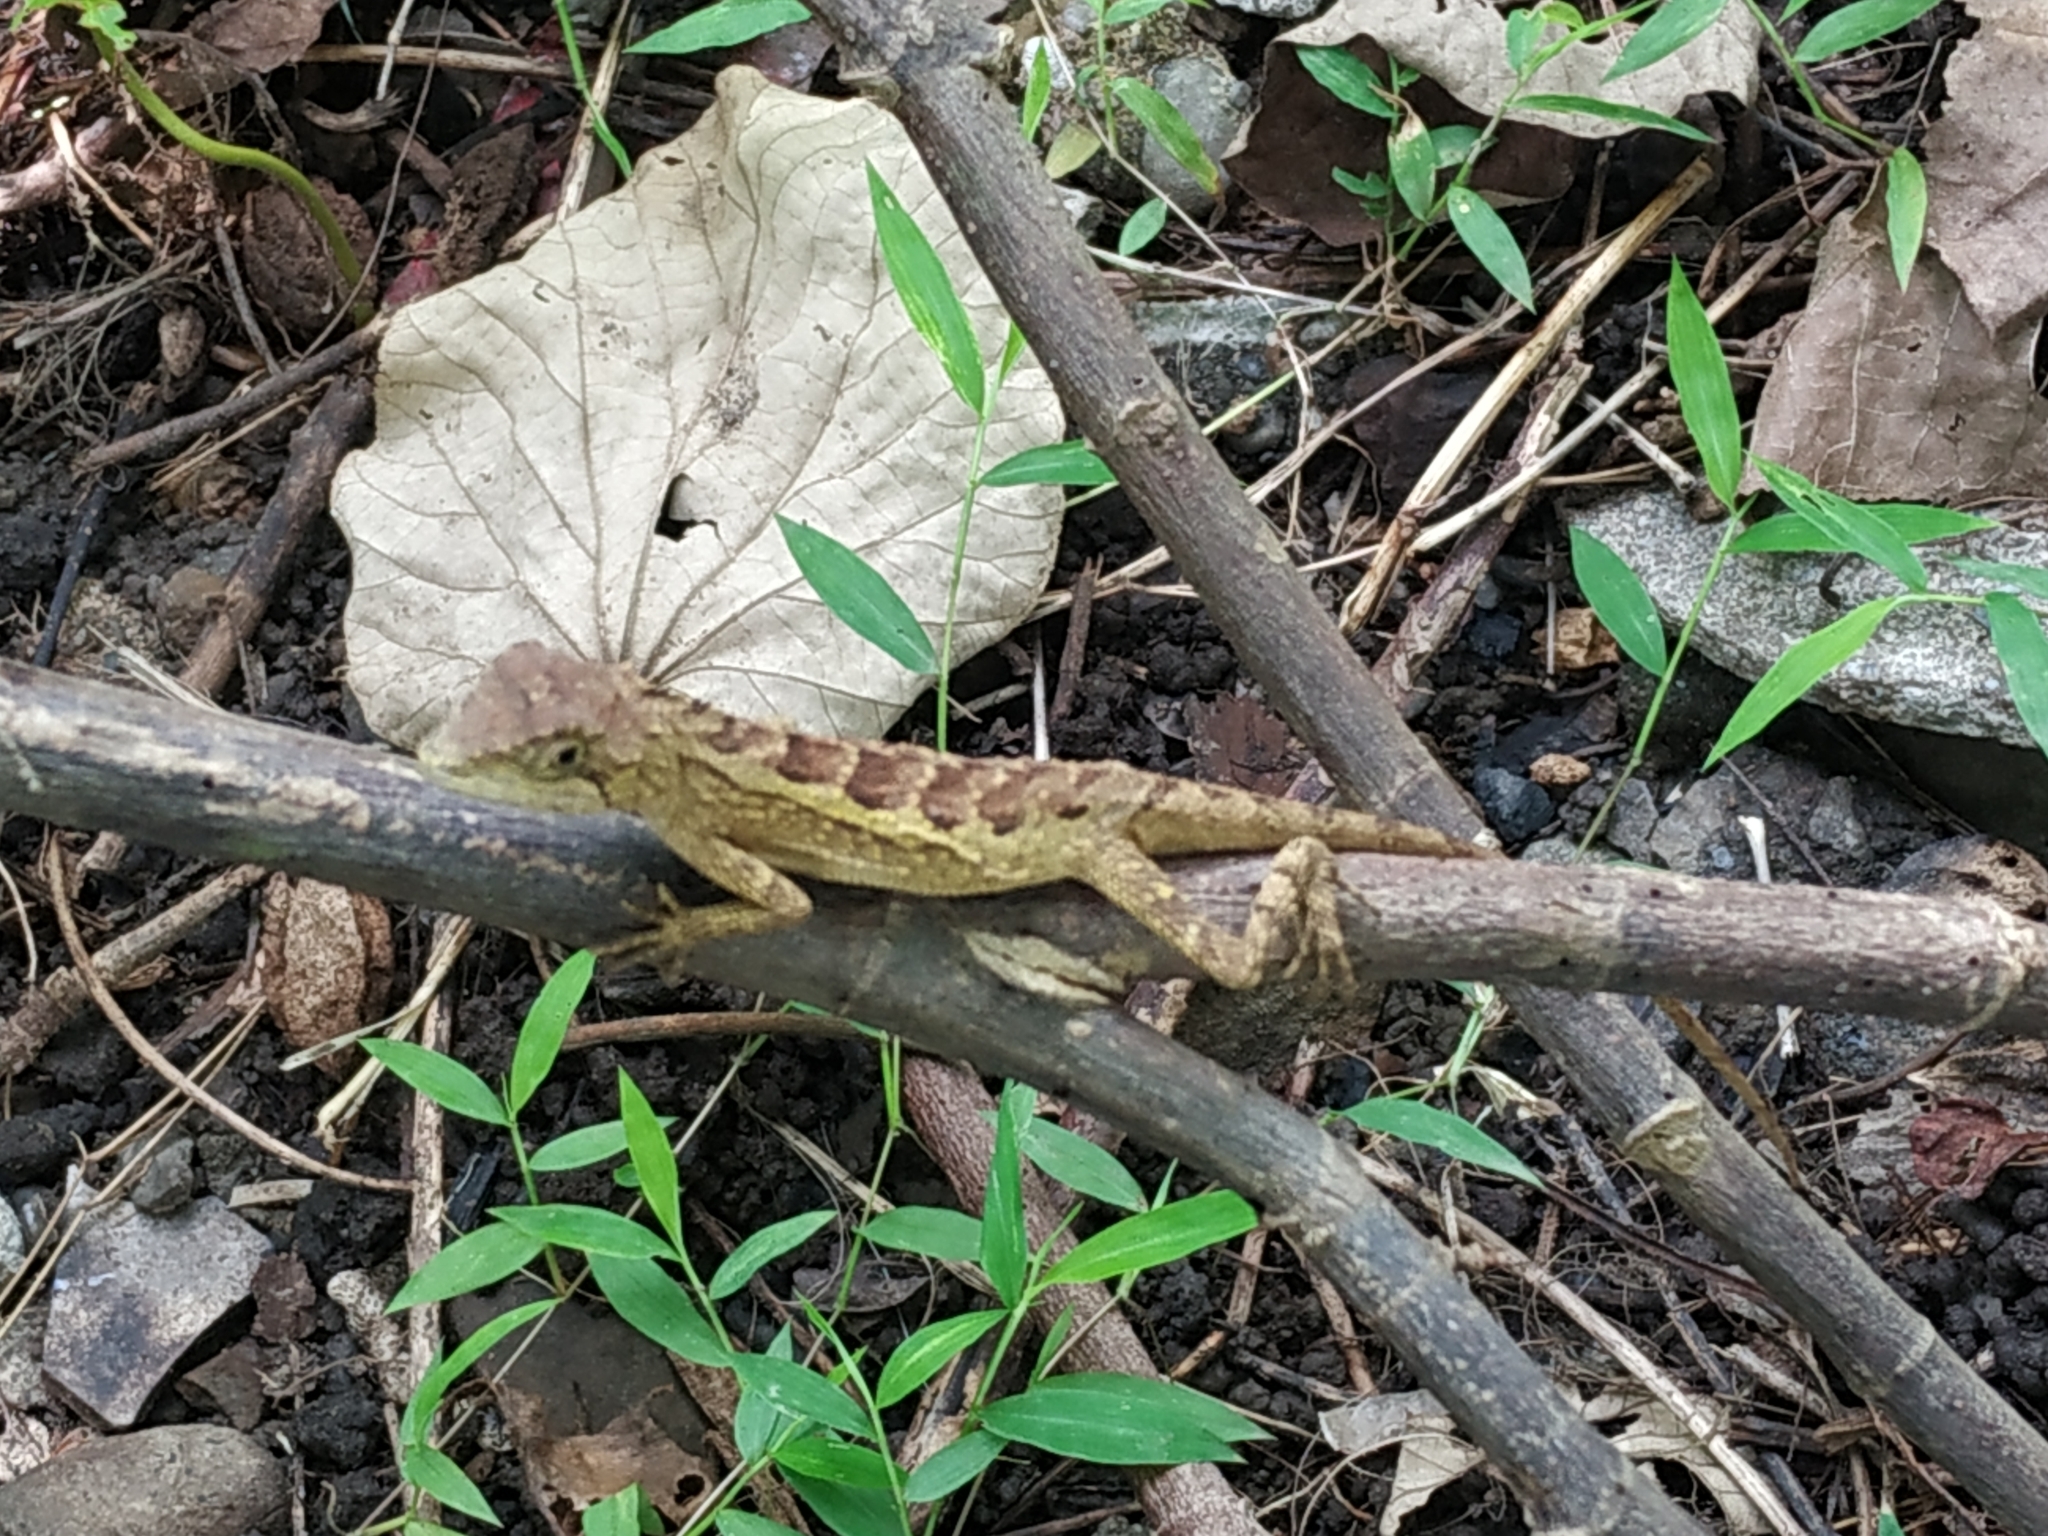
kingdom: Animalia
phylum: Chordata
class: Squamata
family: Agamidae
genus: Diploderma
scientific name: Diploderma swinhonis
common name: Taiwan japalure
